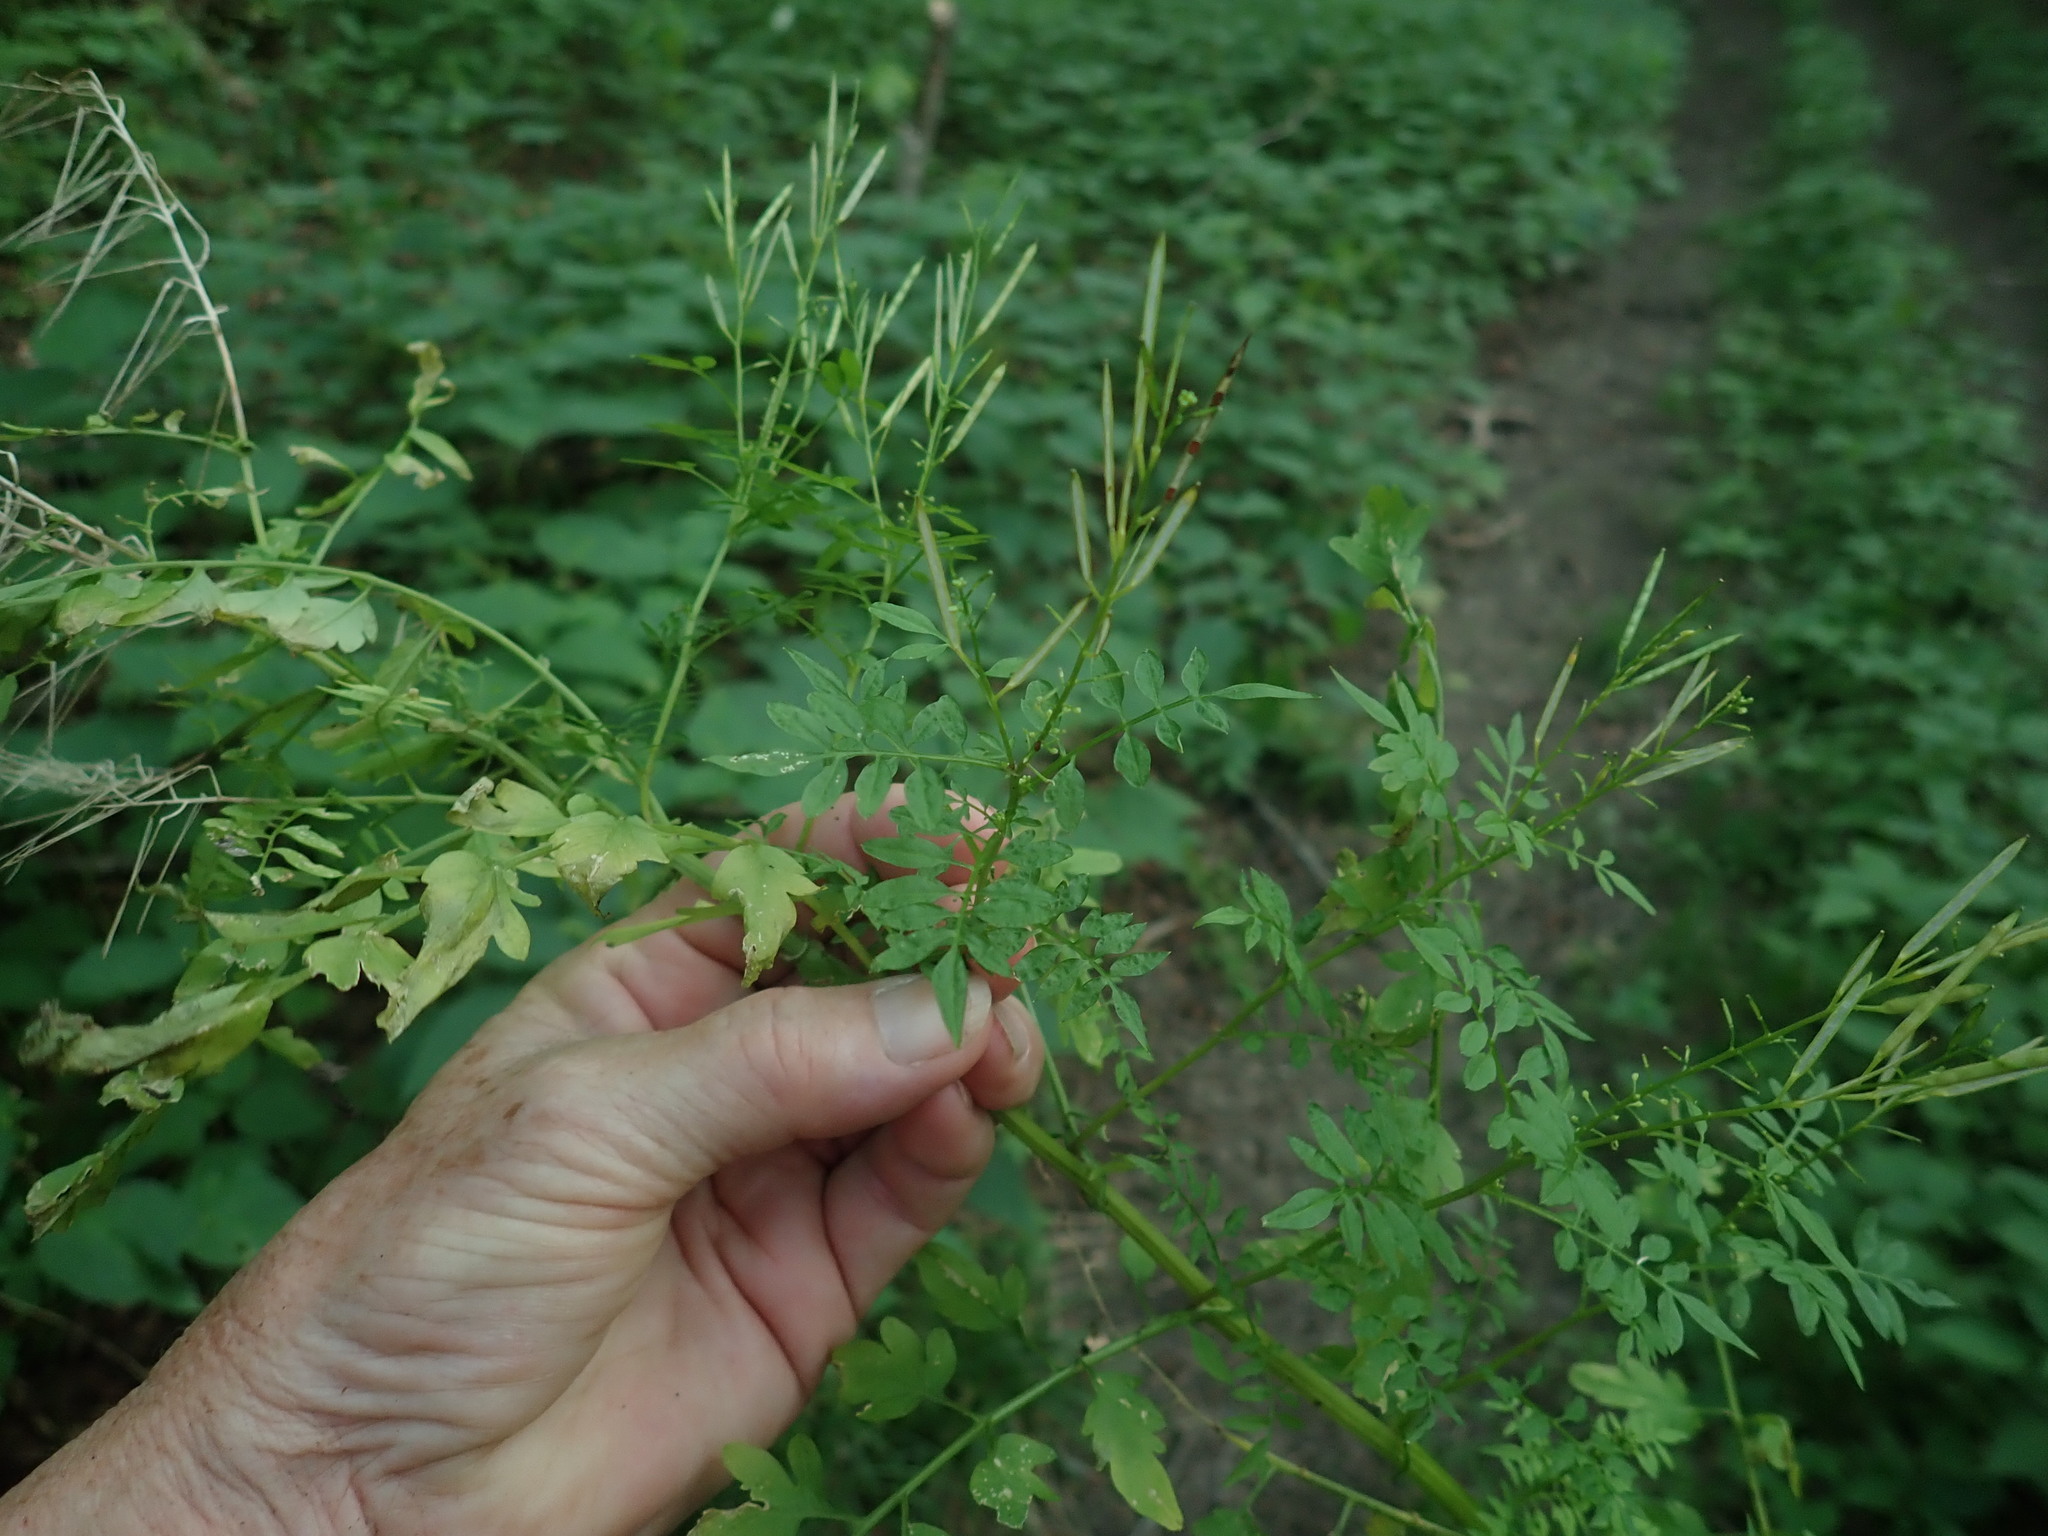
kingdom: Plantae
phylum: Tracheophyta
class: Magnoliopsida
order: Brassicales
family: Brassicaceae
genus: Cardamine
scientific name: Cardamine impatiens
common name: Narrow-leaved bitter-cress
